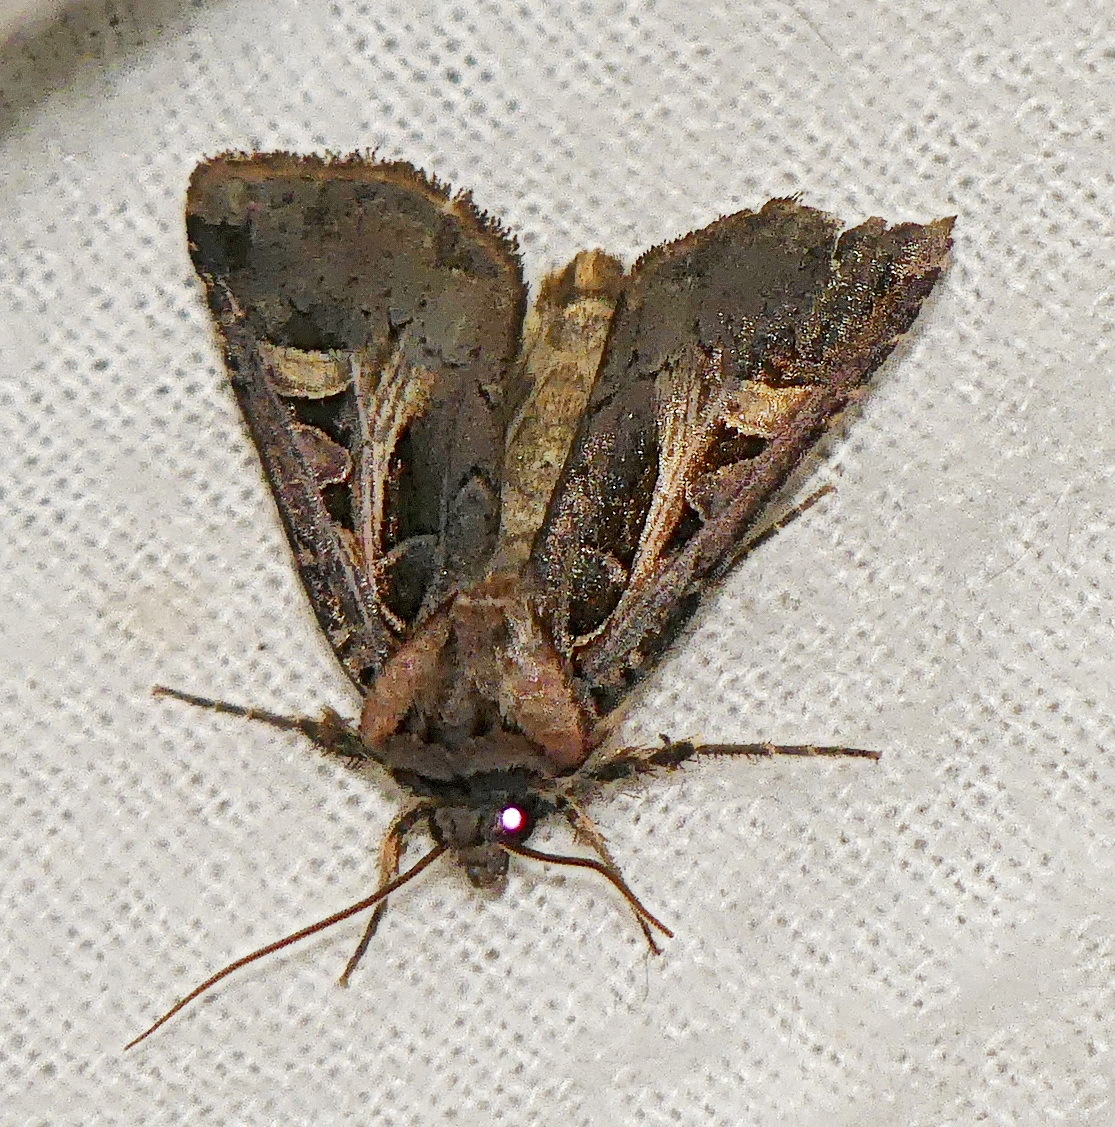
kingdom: Animalia
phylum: Arthropoda
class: Insecta
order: Lepidoptera
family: Noctuidae
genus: Feltia
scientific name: Feltia herilis
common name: Master's dart
